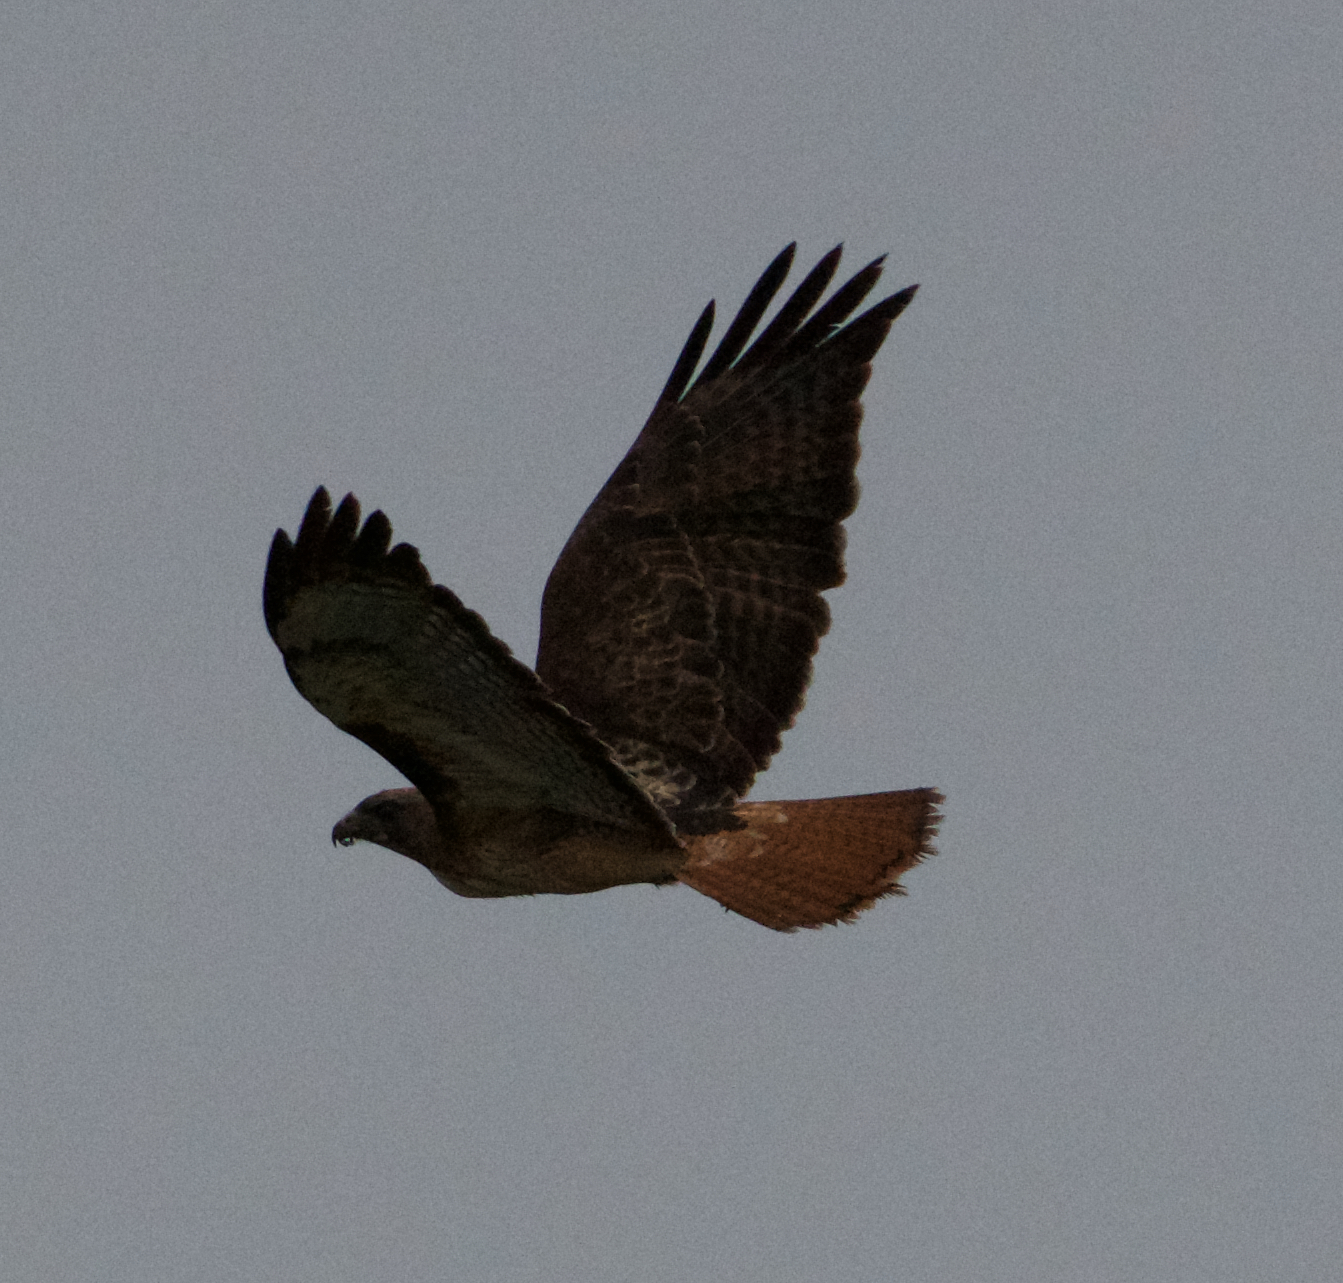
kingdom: Animalia
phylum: Chordata
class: Aves
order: Accipitriformes
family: Accipitridae
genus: Buteo
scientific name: Buteo jamaicensis
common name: Red-tailed hawk
